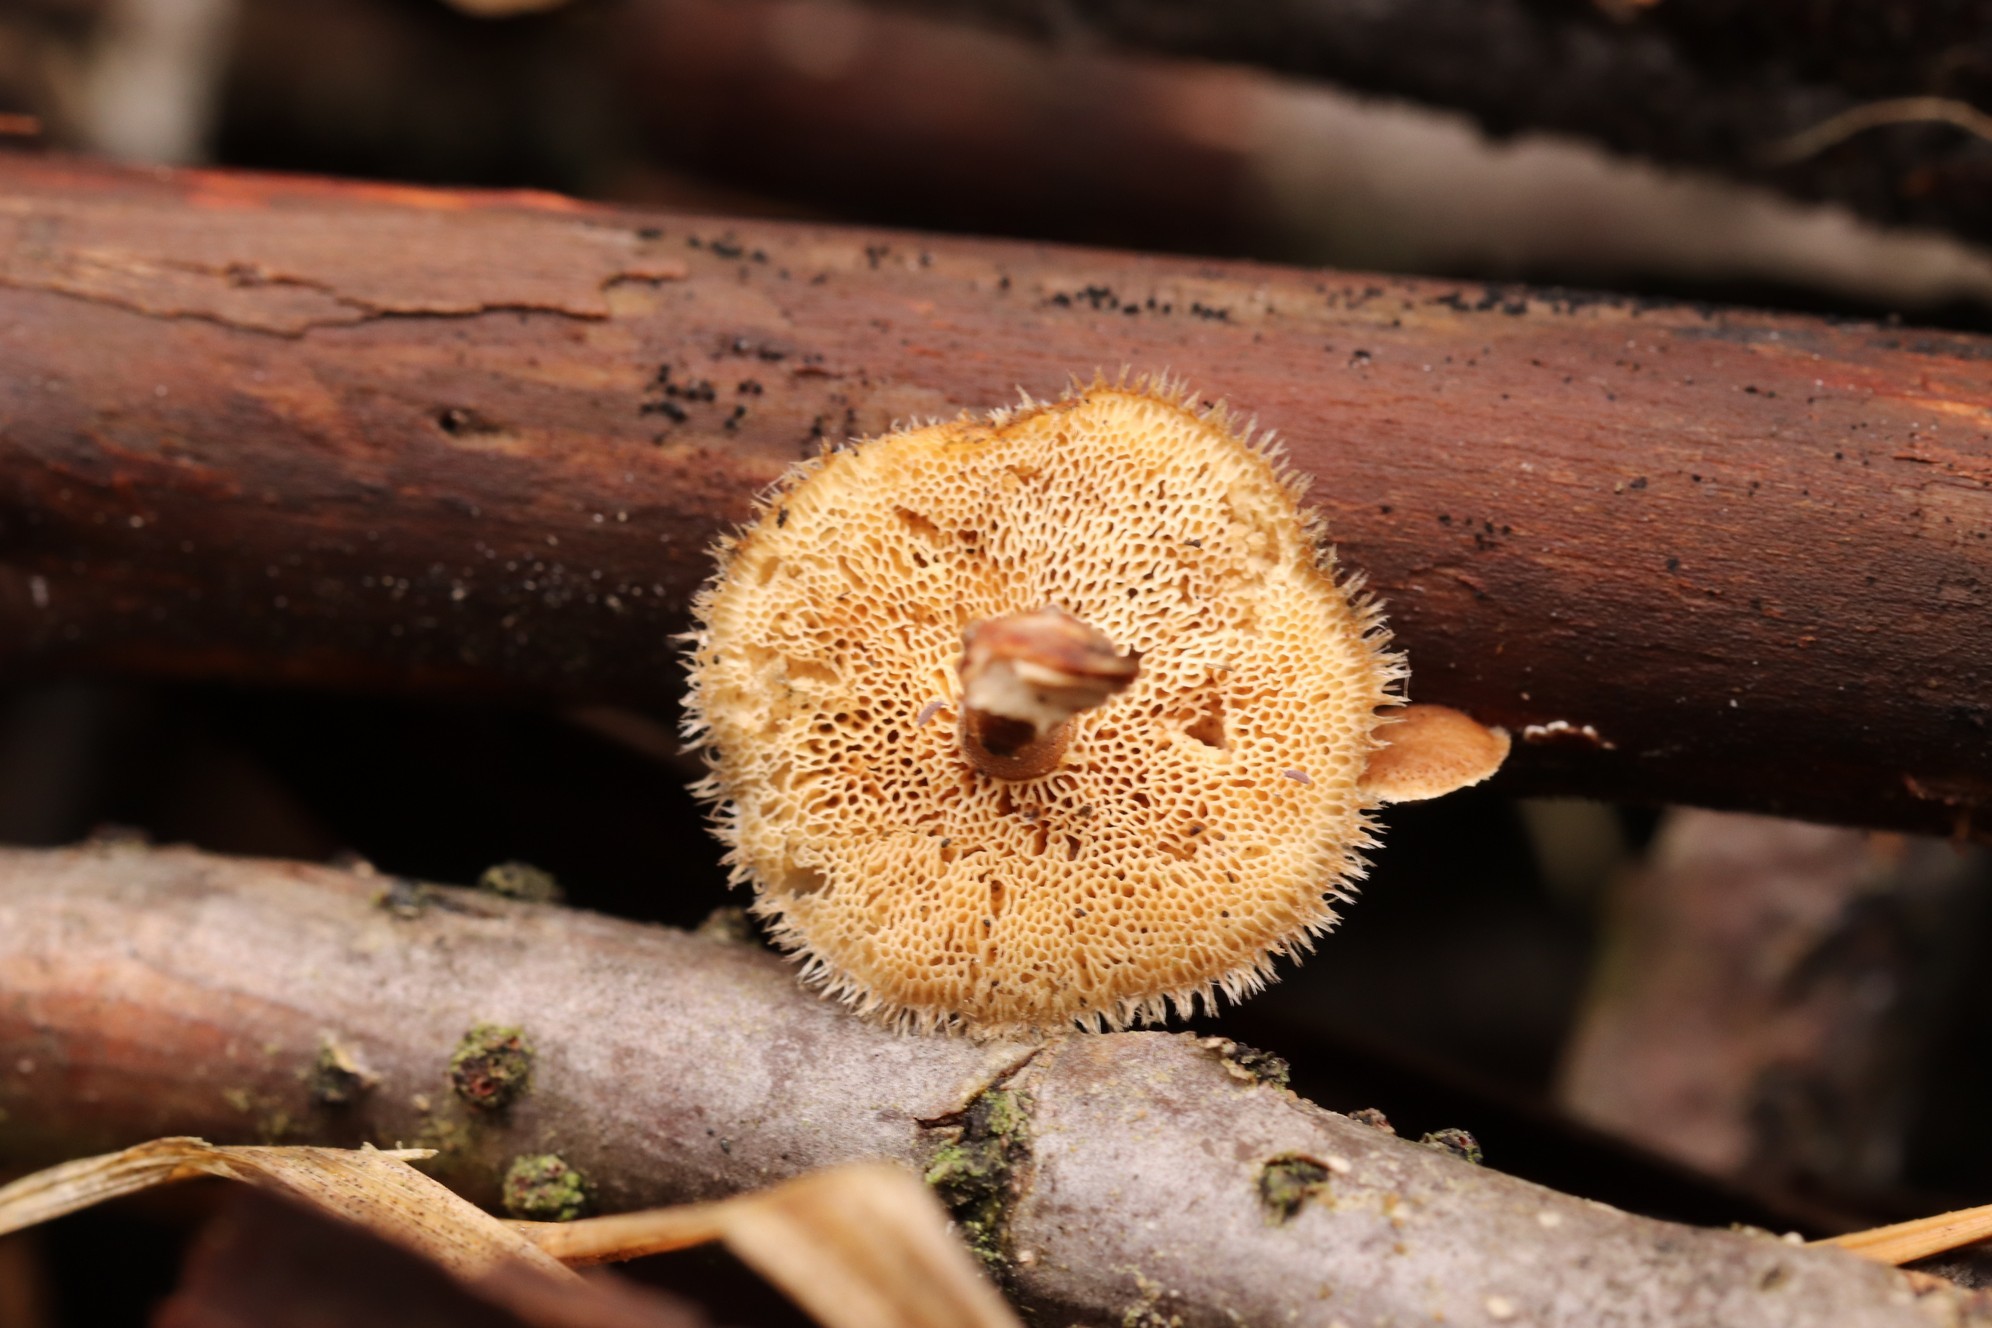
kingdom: Fungi
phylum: Basidiomycota
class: Agaricomycetes
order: Polyporales
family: Polyporaceae
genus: Lentinus
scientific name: Lentinus brumalis
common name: Winter polypore
